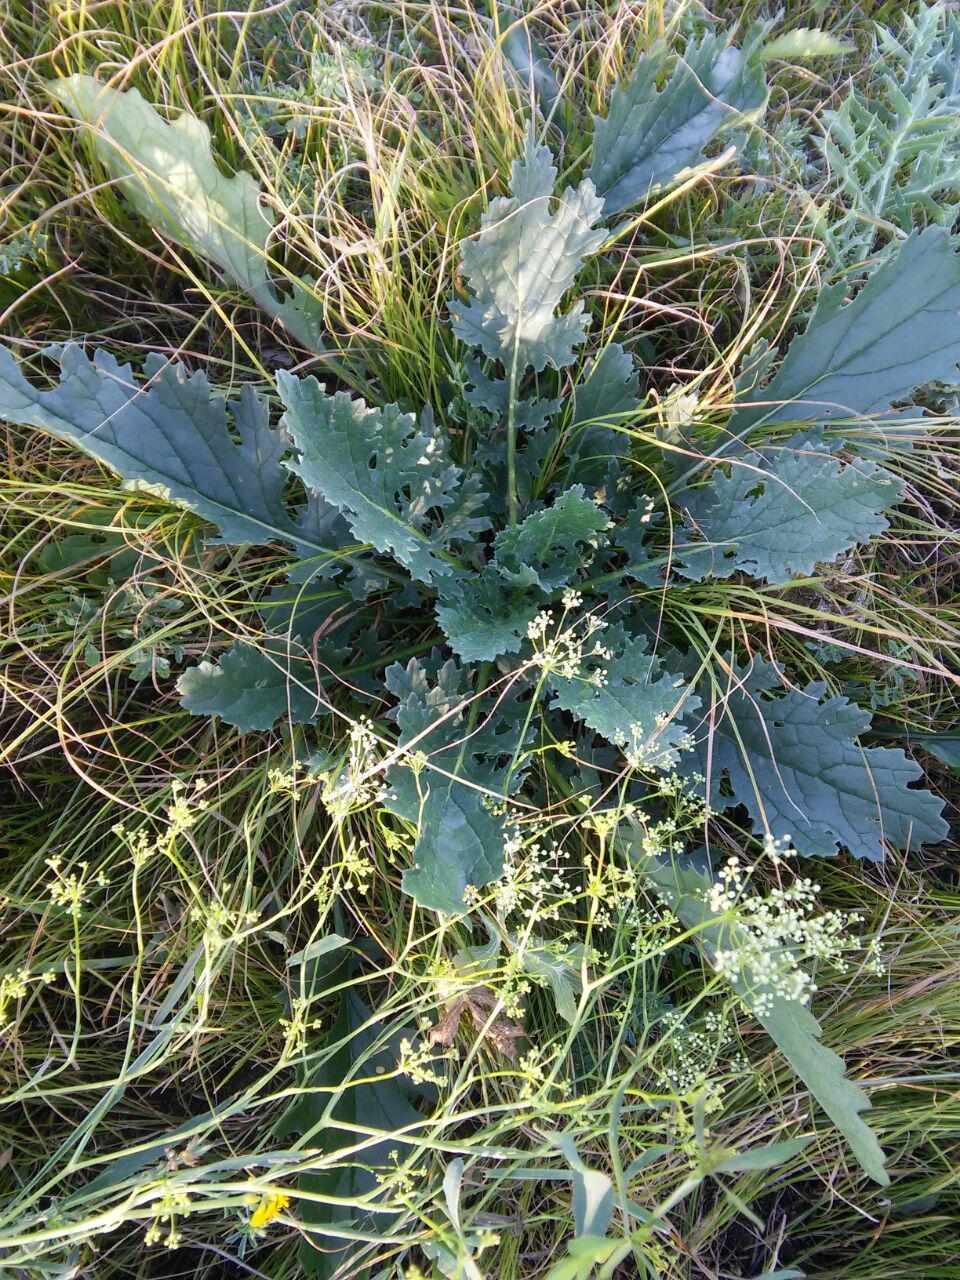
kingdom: Plantae
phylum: Tracheophyta
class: Magnoliopsida
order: Asterales
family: Asteraceae
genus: Jacobaea
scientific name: Jacobaea vulgaris
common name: Stinking willie
